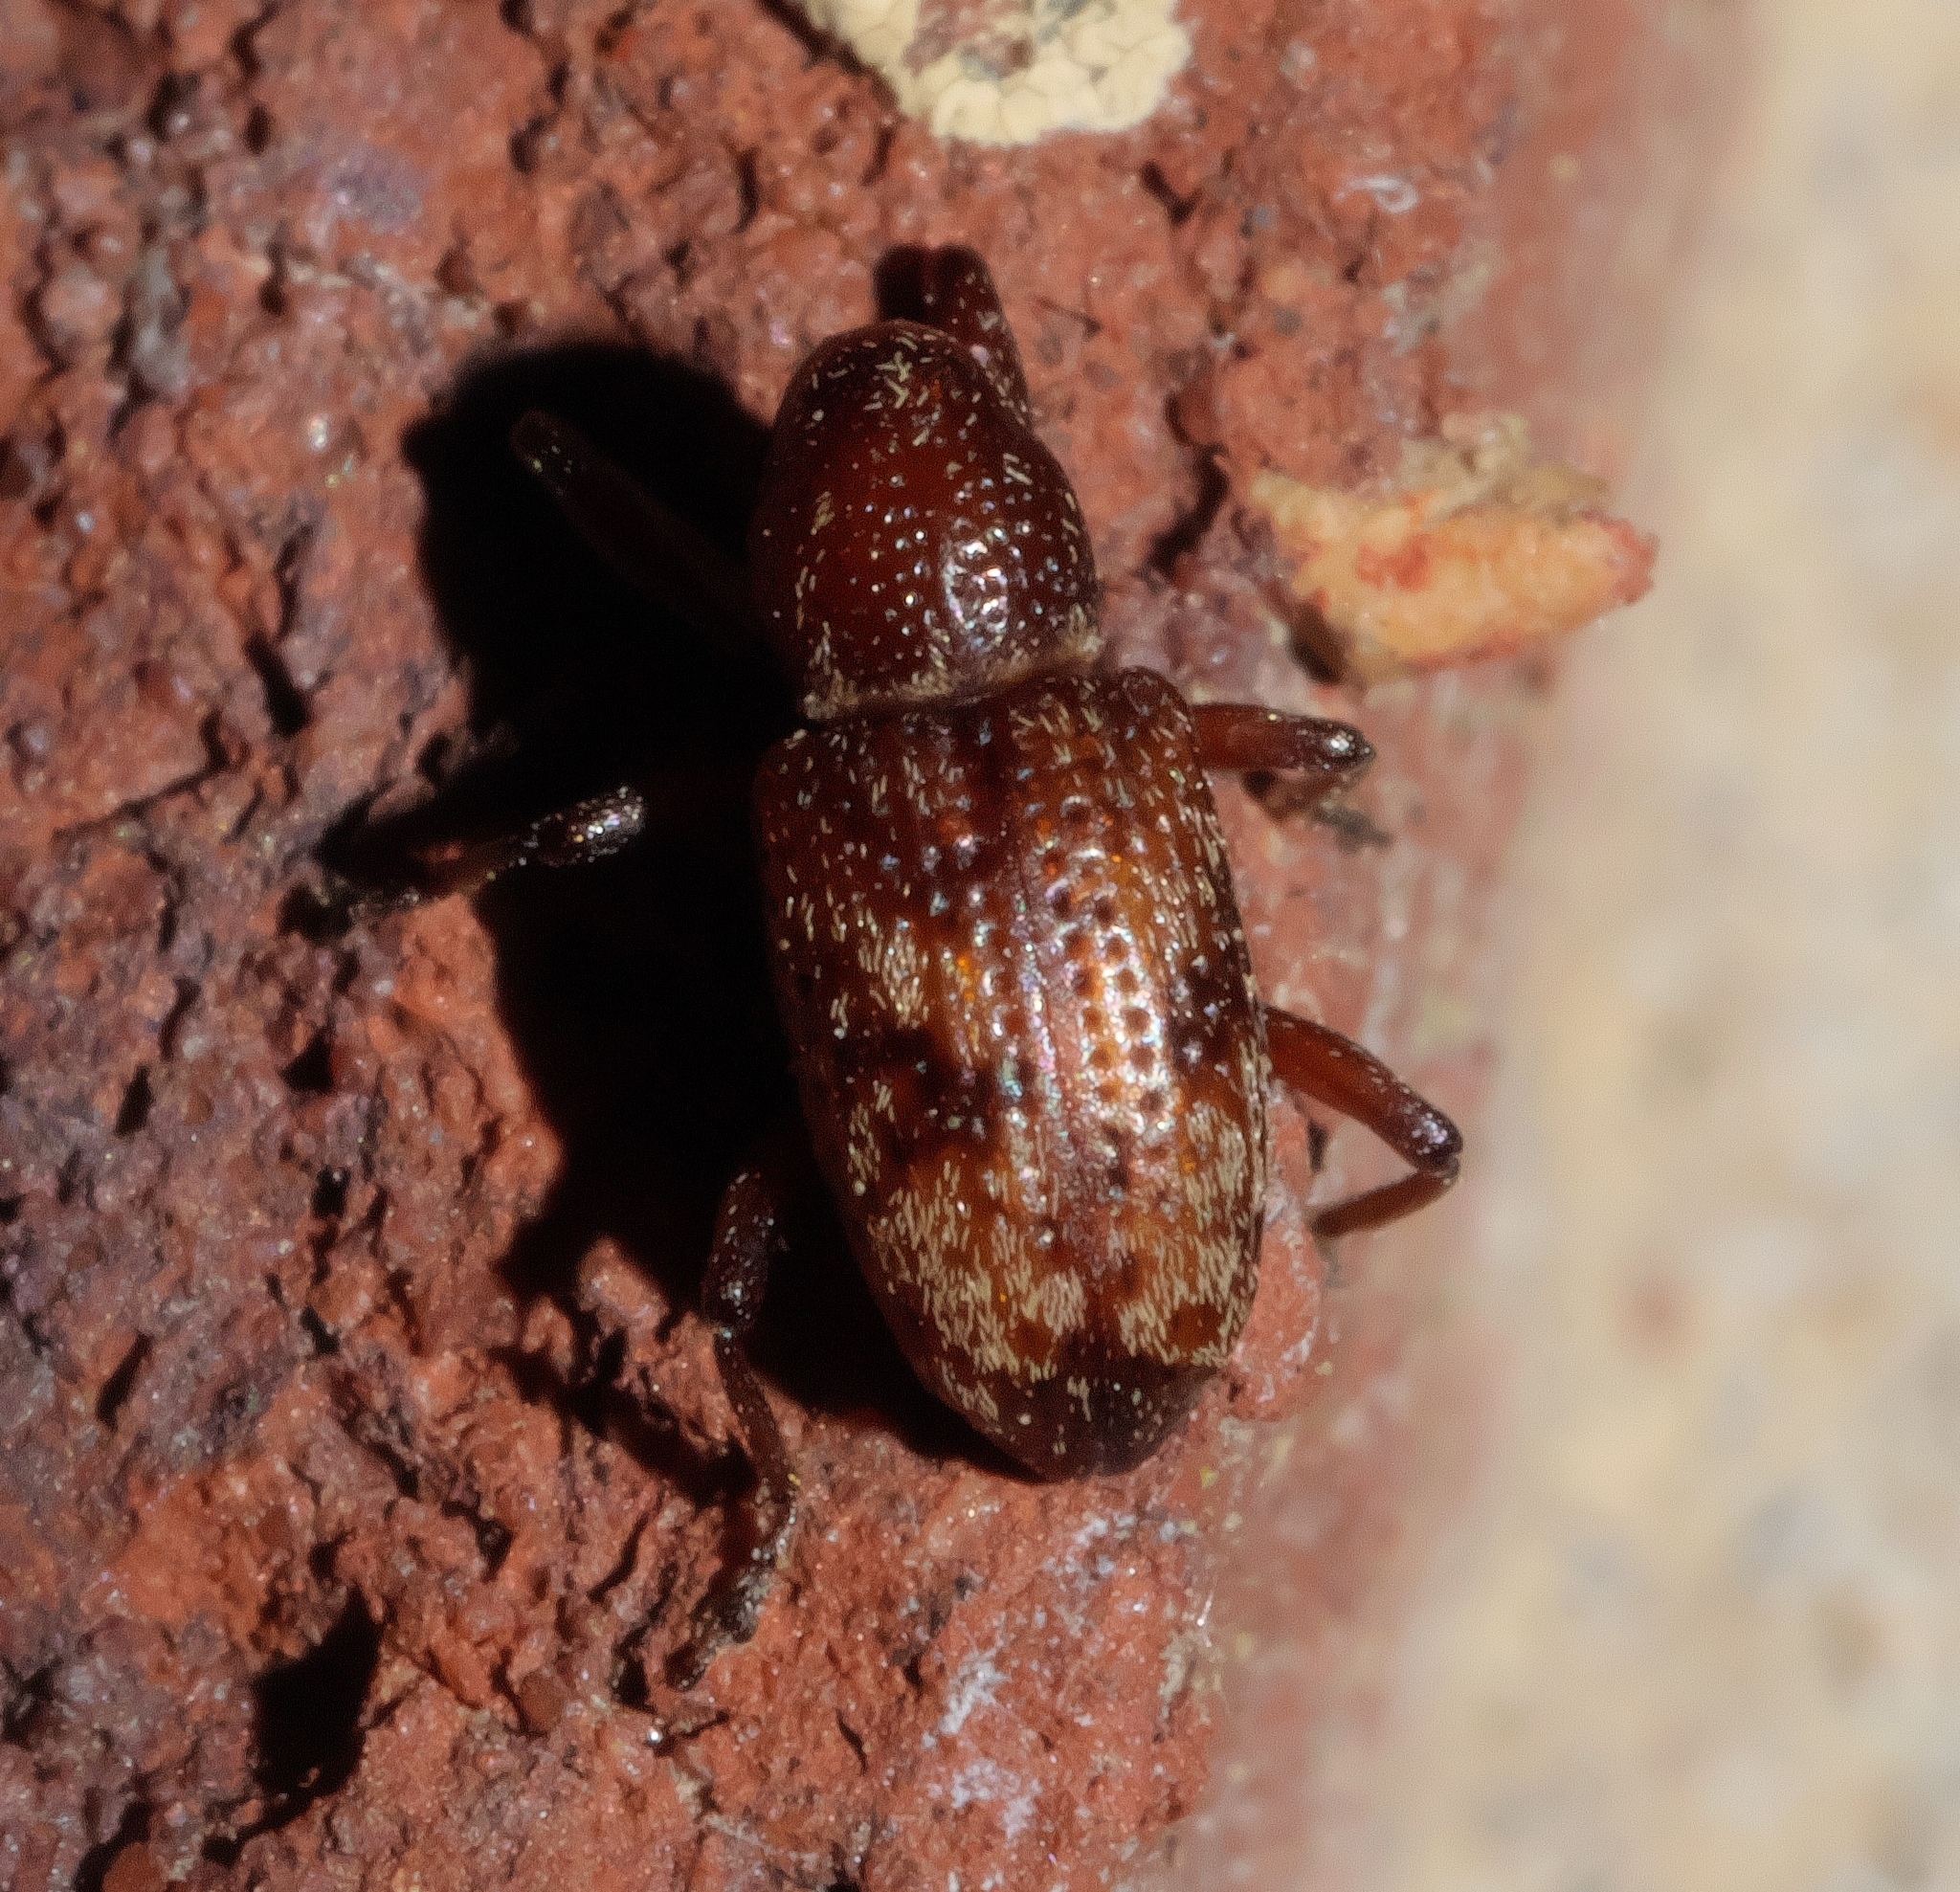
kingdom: Animalia
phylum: Arthropoda
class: Insecta
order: Coleoptera
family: Curculionidae
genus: Tyloderma
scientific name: Tyloderma sphaerocarpae
